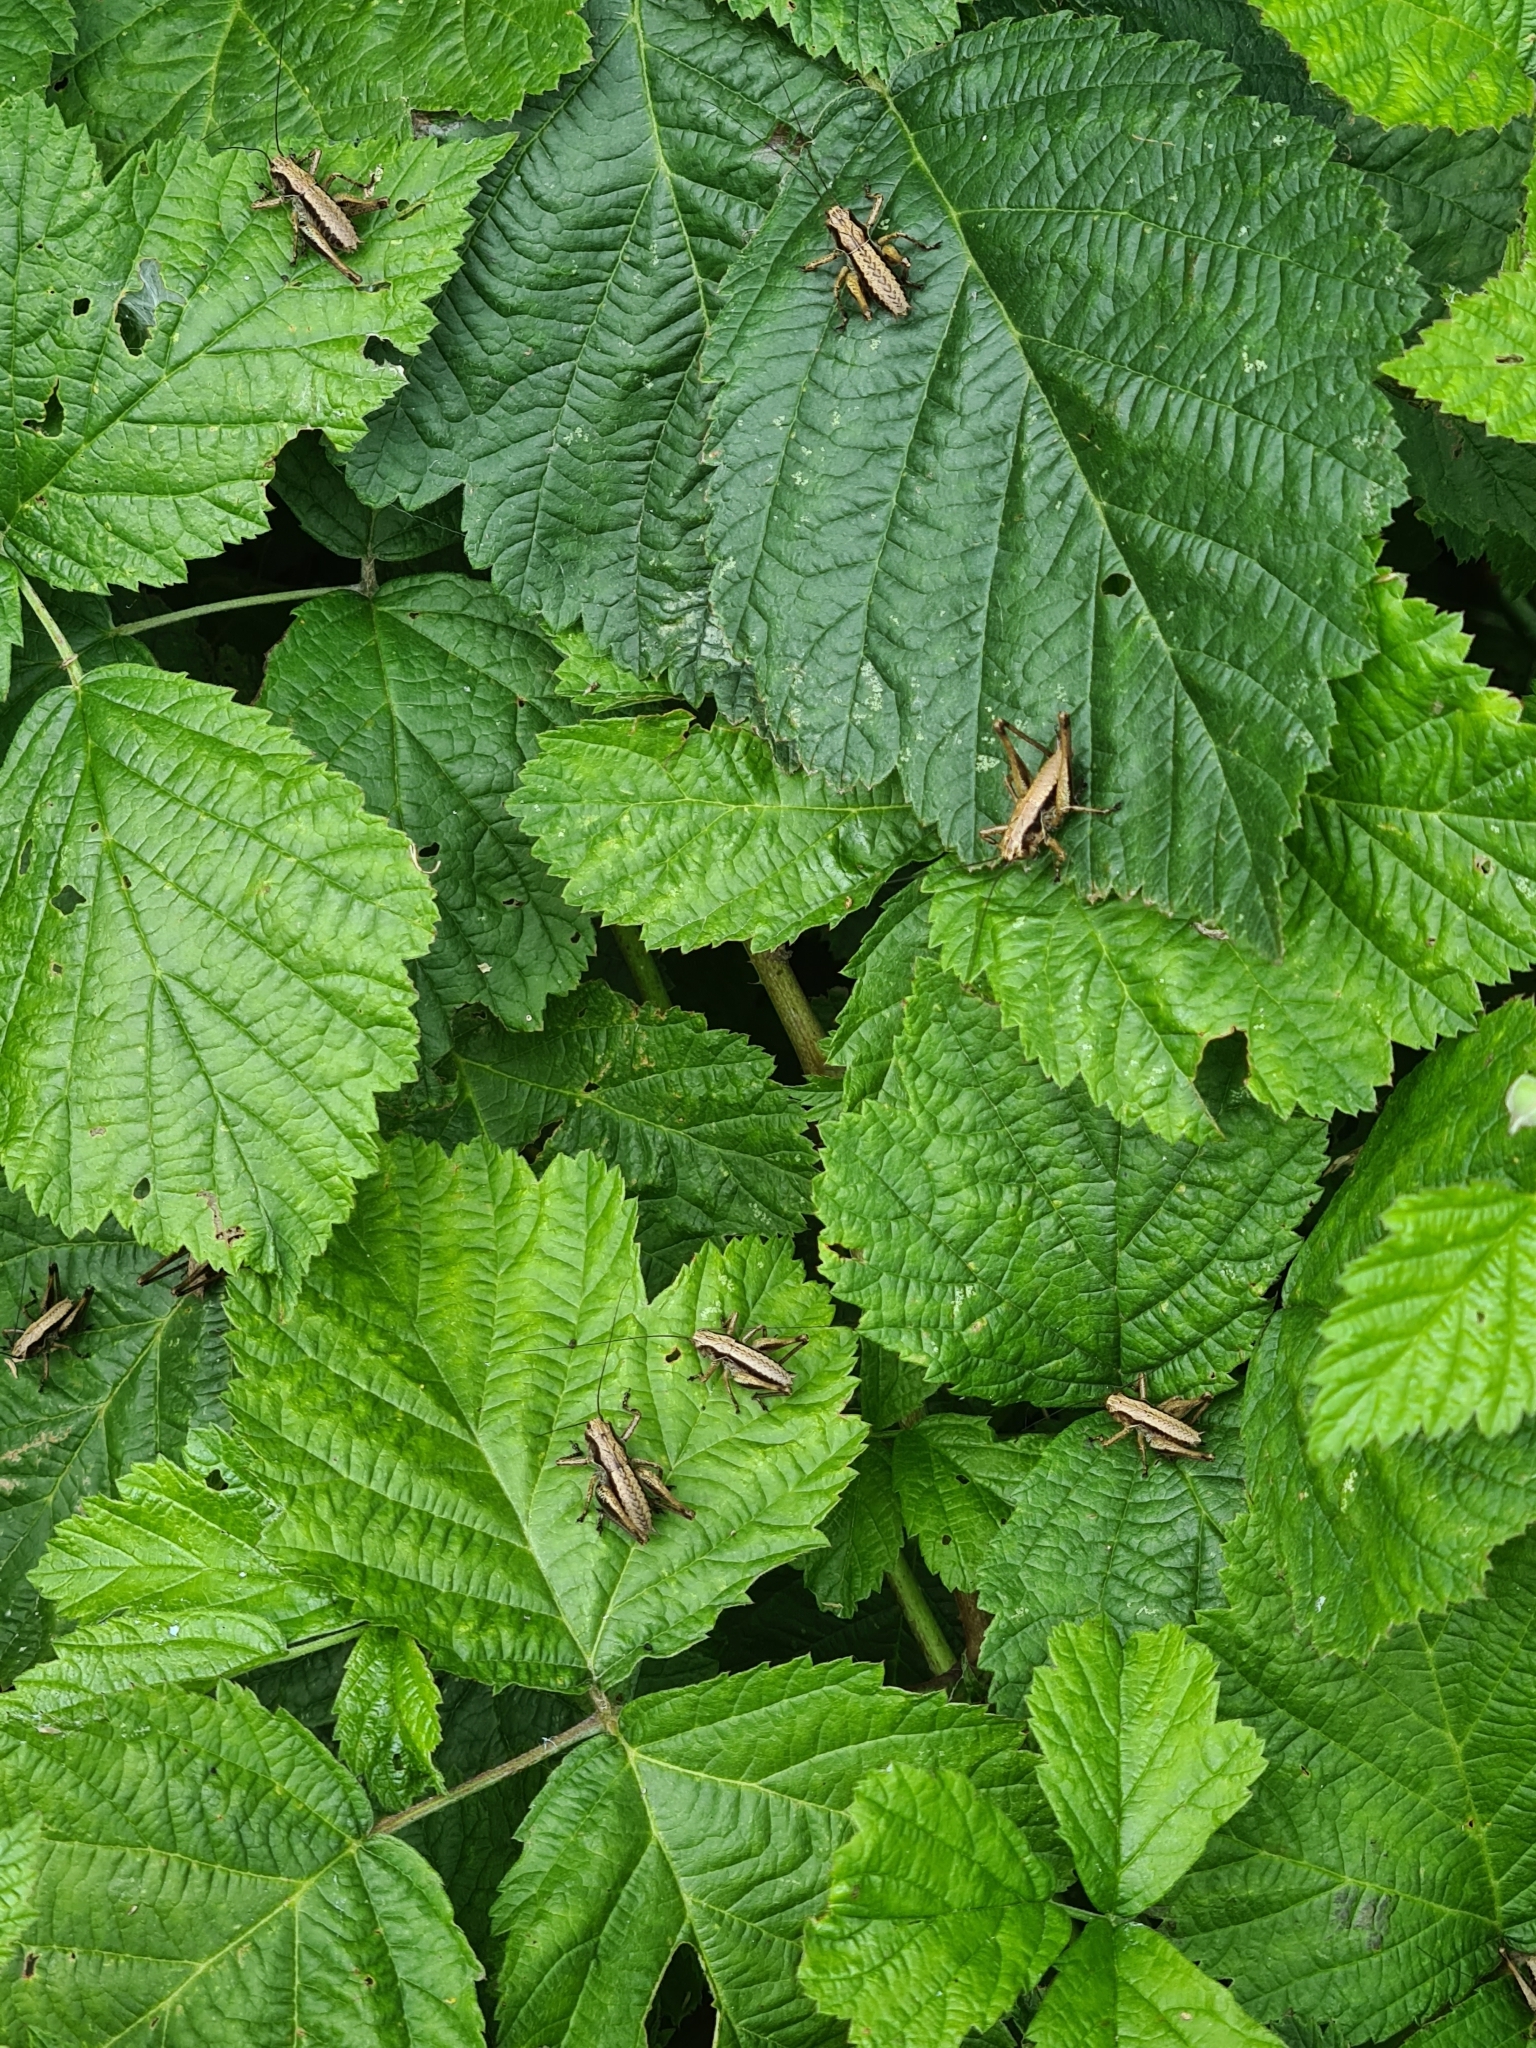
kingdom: Animalia
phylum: Arthropoda
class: Insecta
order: Orthoptera
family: Tettigoniidae
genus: Pholidoptera
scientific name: Pholidoptera griseoaptera
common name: Dark bush-cricket
